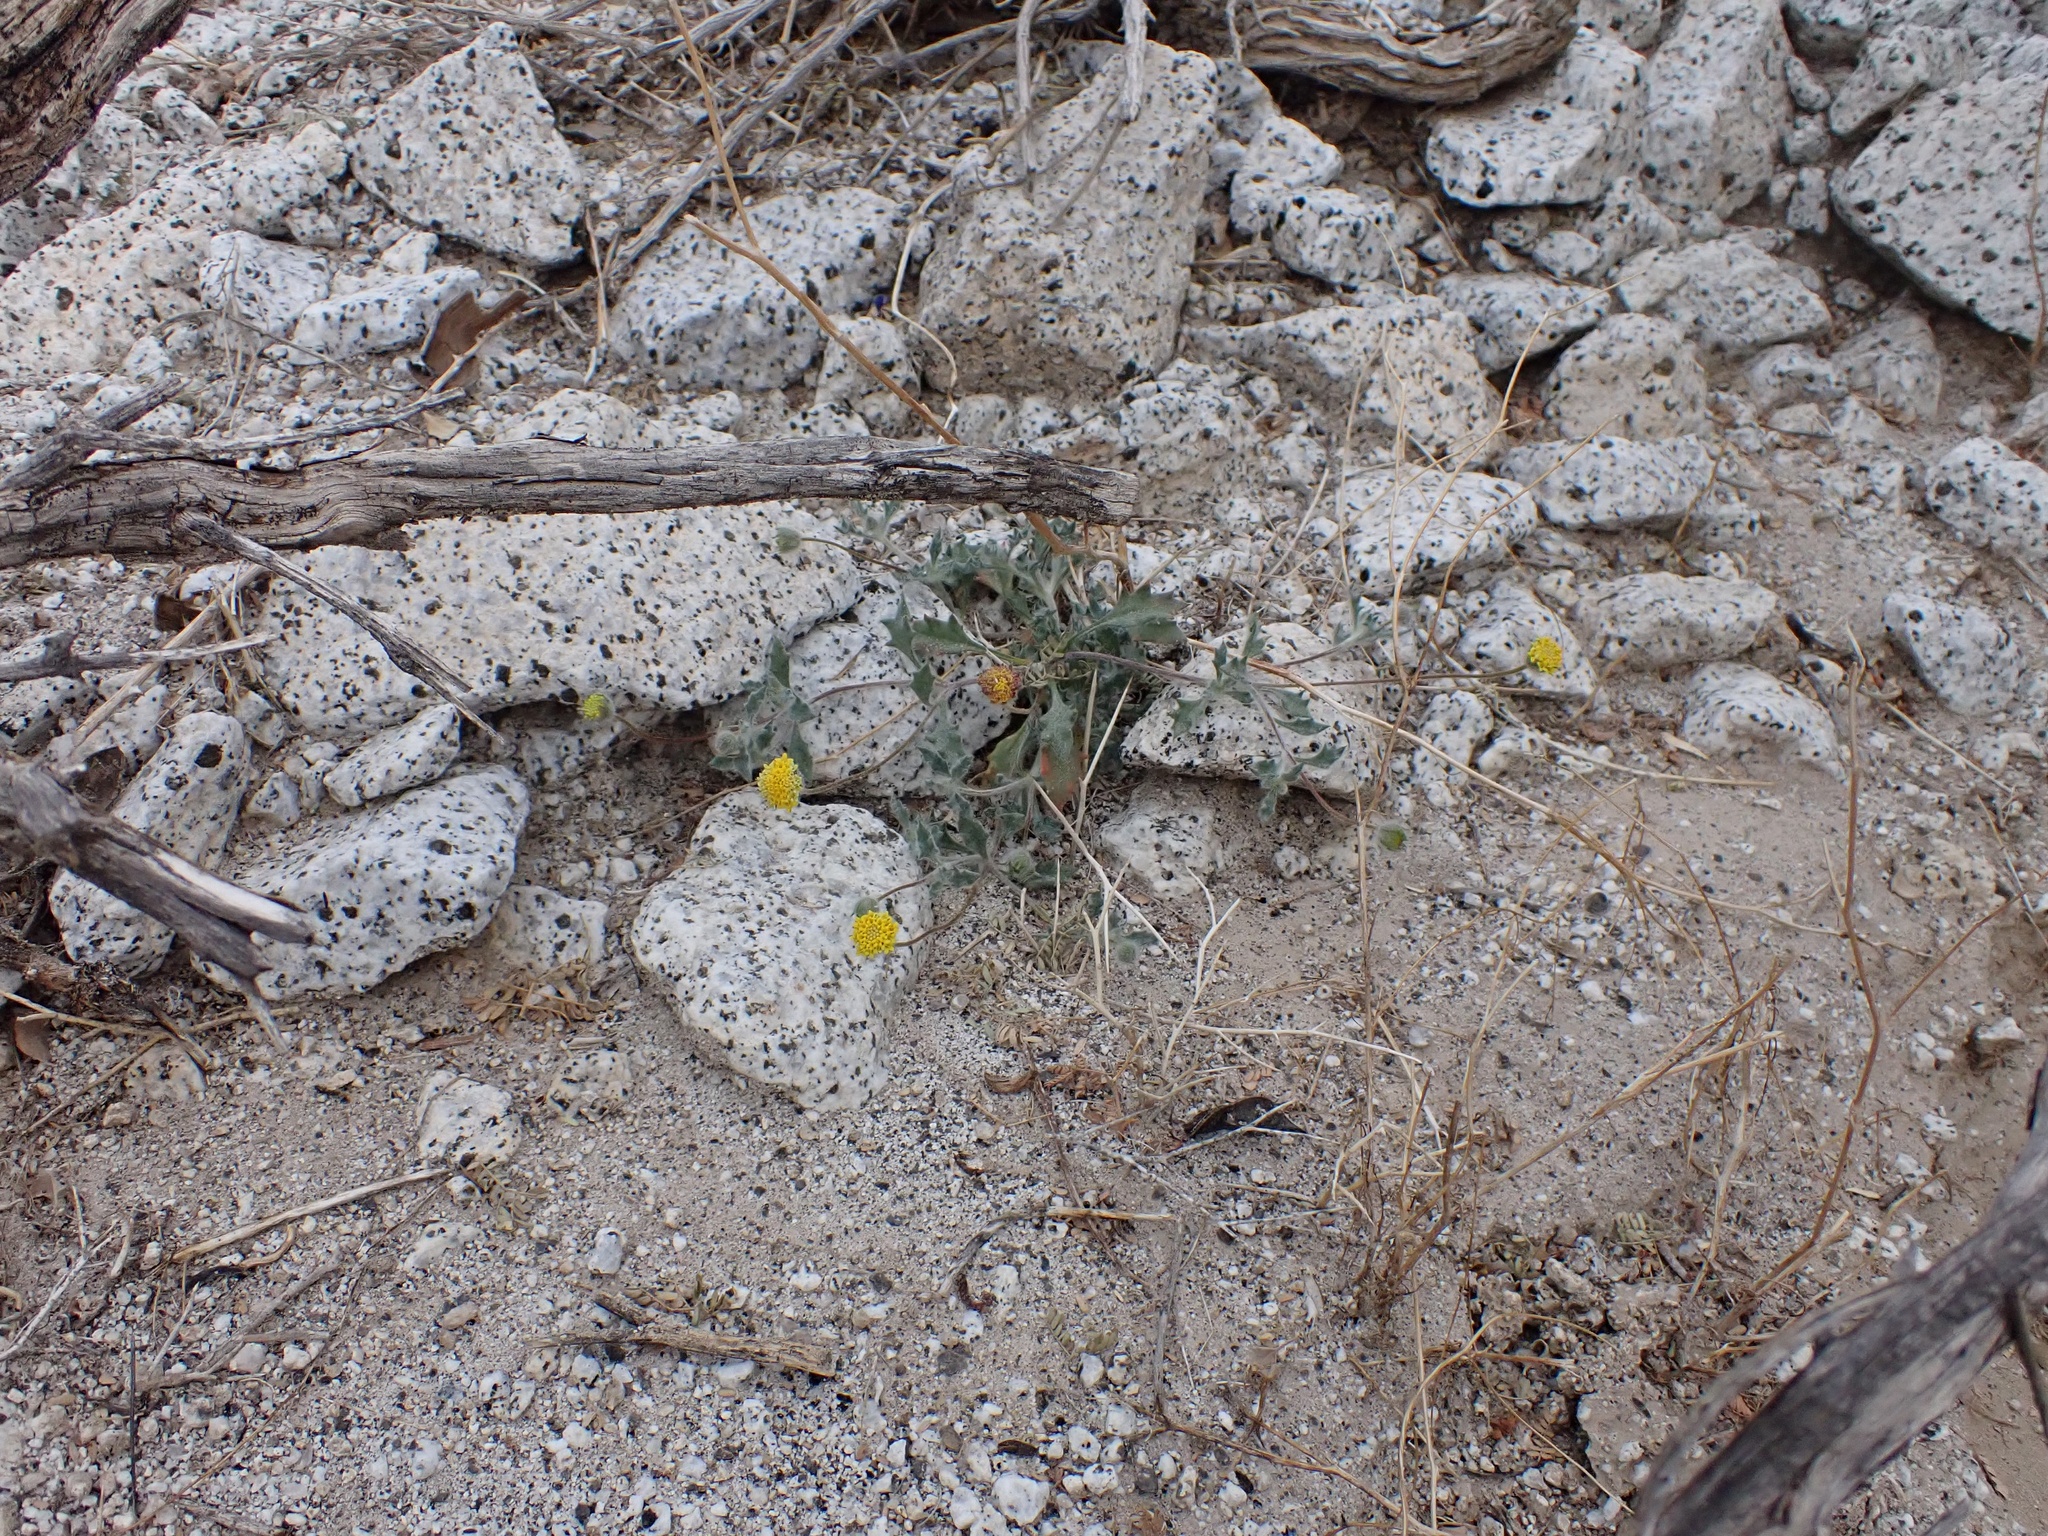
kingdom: Plantae
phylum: Tracheophyta
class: Magnoliopsida
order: Asterales
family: Asteraceae
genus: Trichoptilium
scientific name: Trichoptilium incisum
